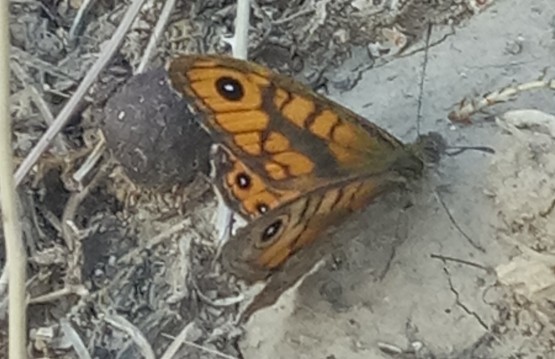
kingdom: Animalia
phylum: Arthropoda
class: Insecta
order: Lepidoptera
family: Nymphalidae
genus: Pararge
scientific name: Pararge Lasiommata megera
